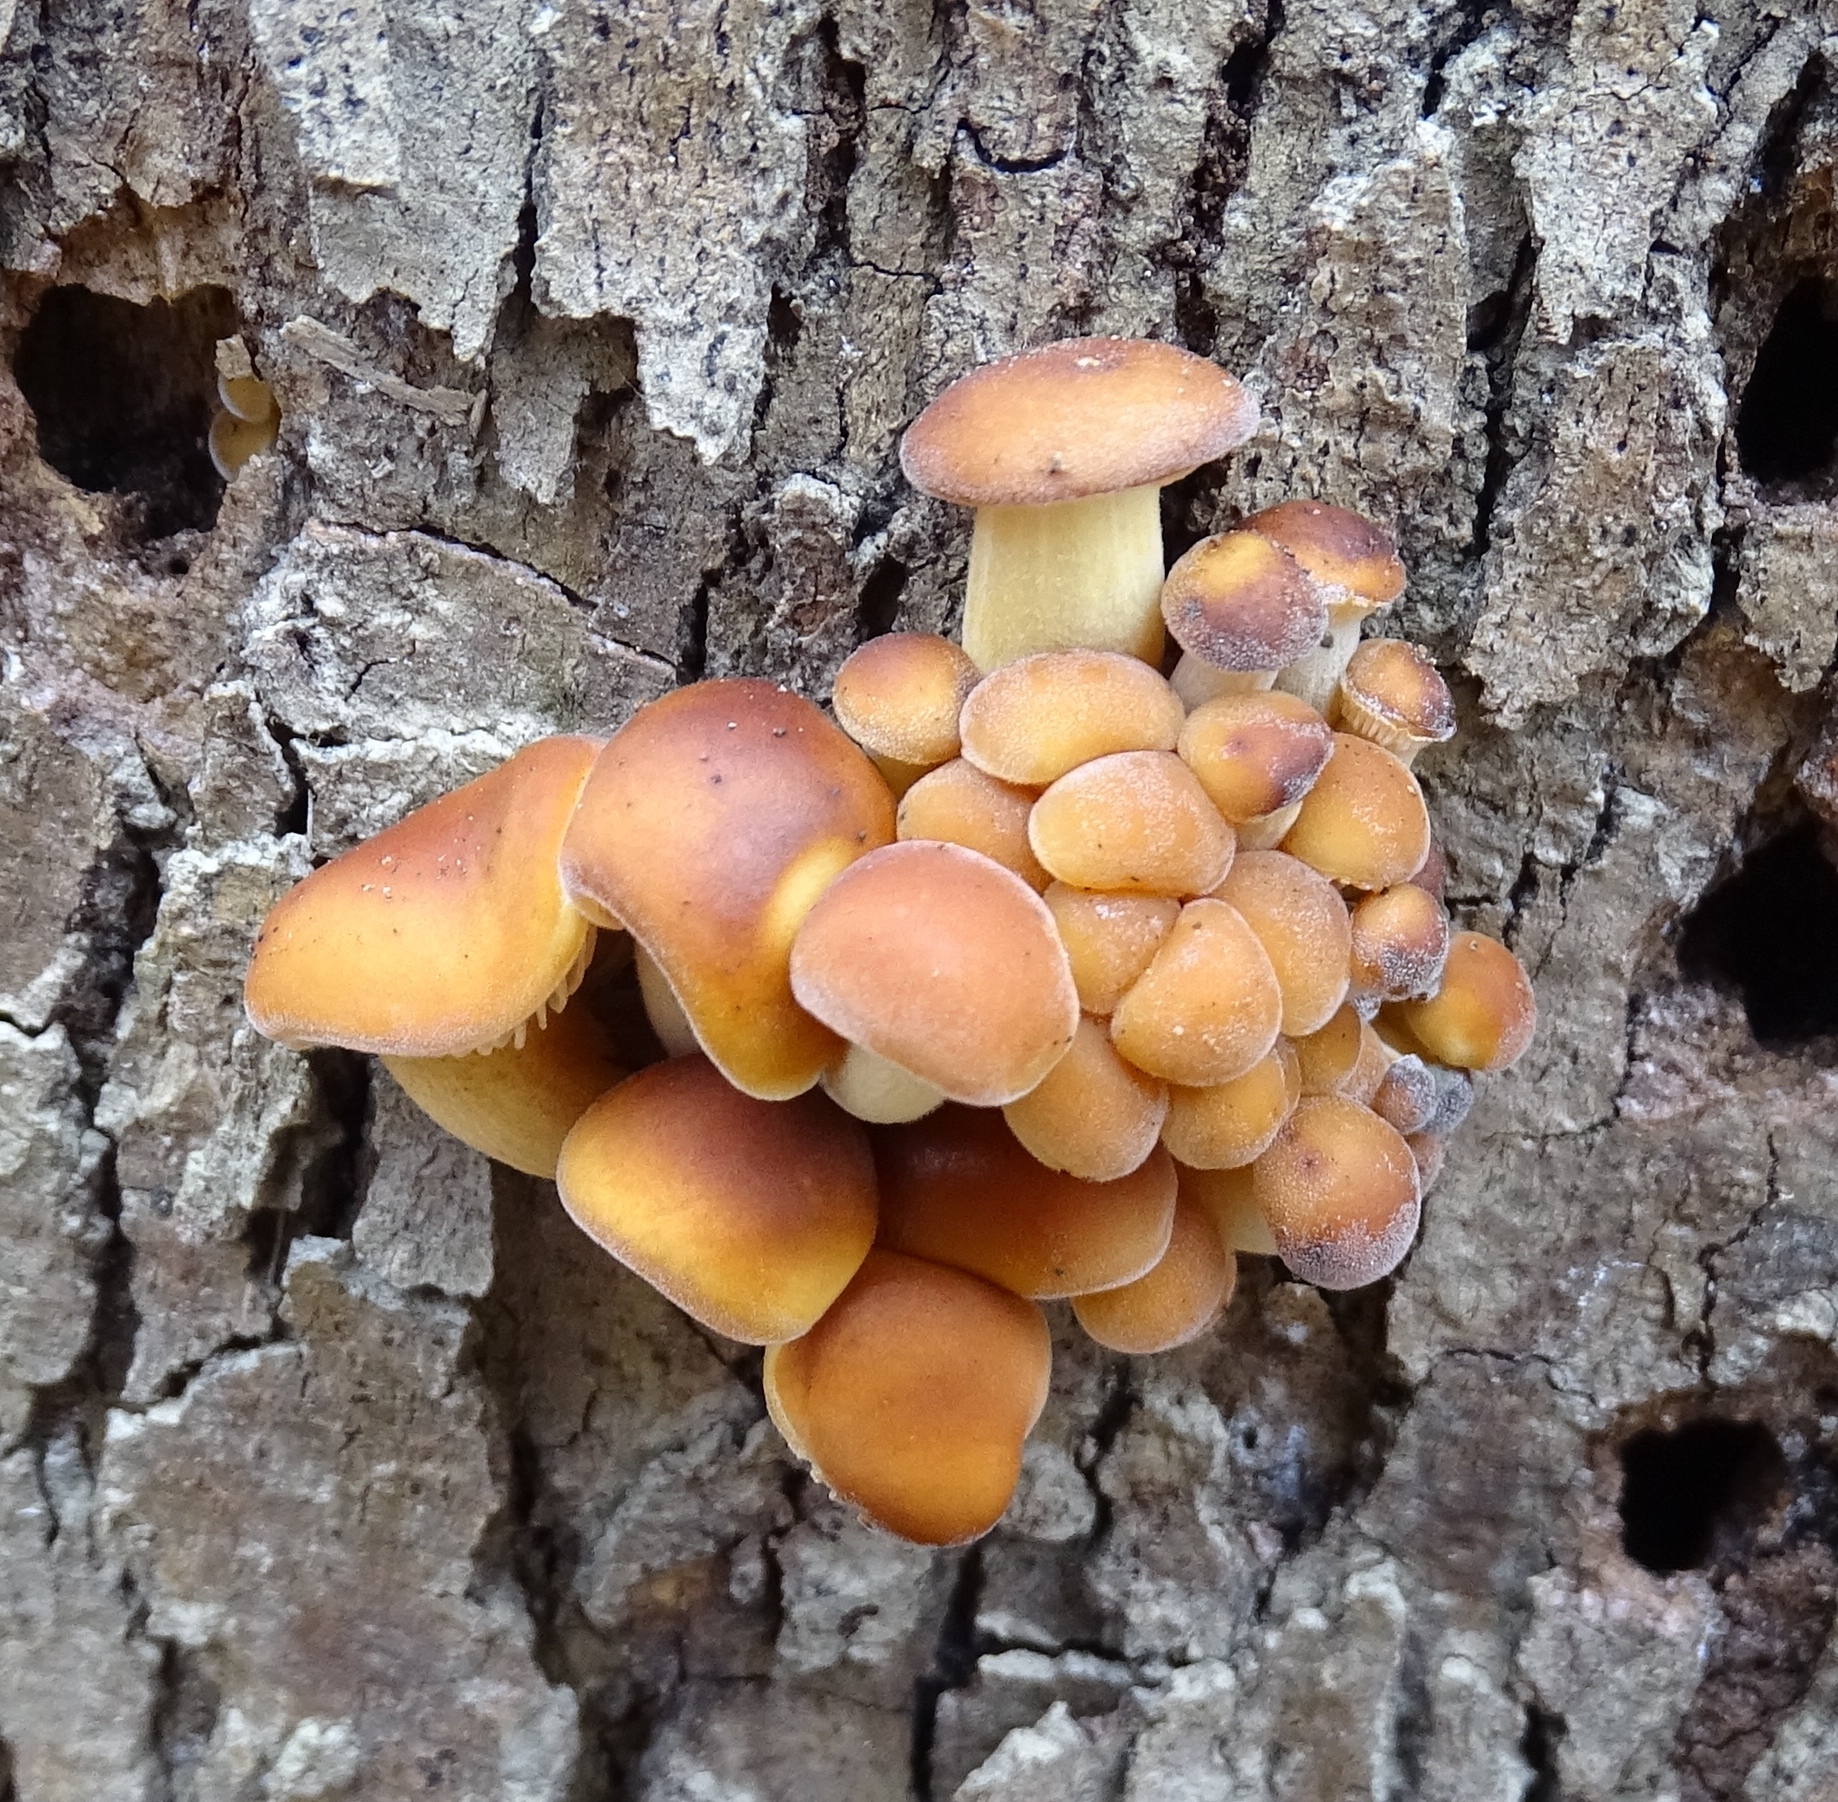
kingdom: Fungi
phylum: Basidiomycota
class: Agaricomycetes
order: Agaricales
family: Physalacriaceae
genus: Flammulina
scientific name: Flammulina velutipes
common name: Velvet shank
